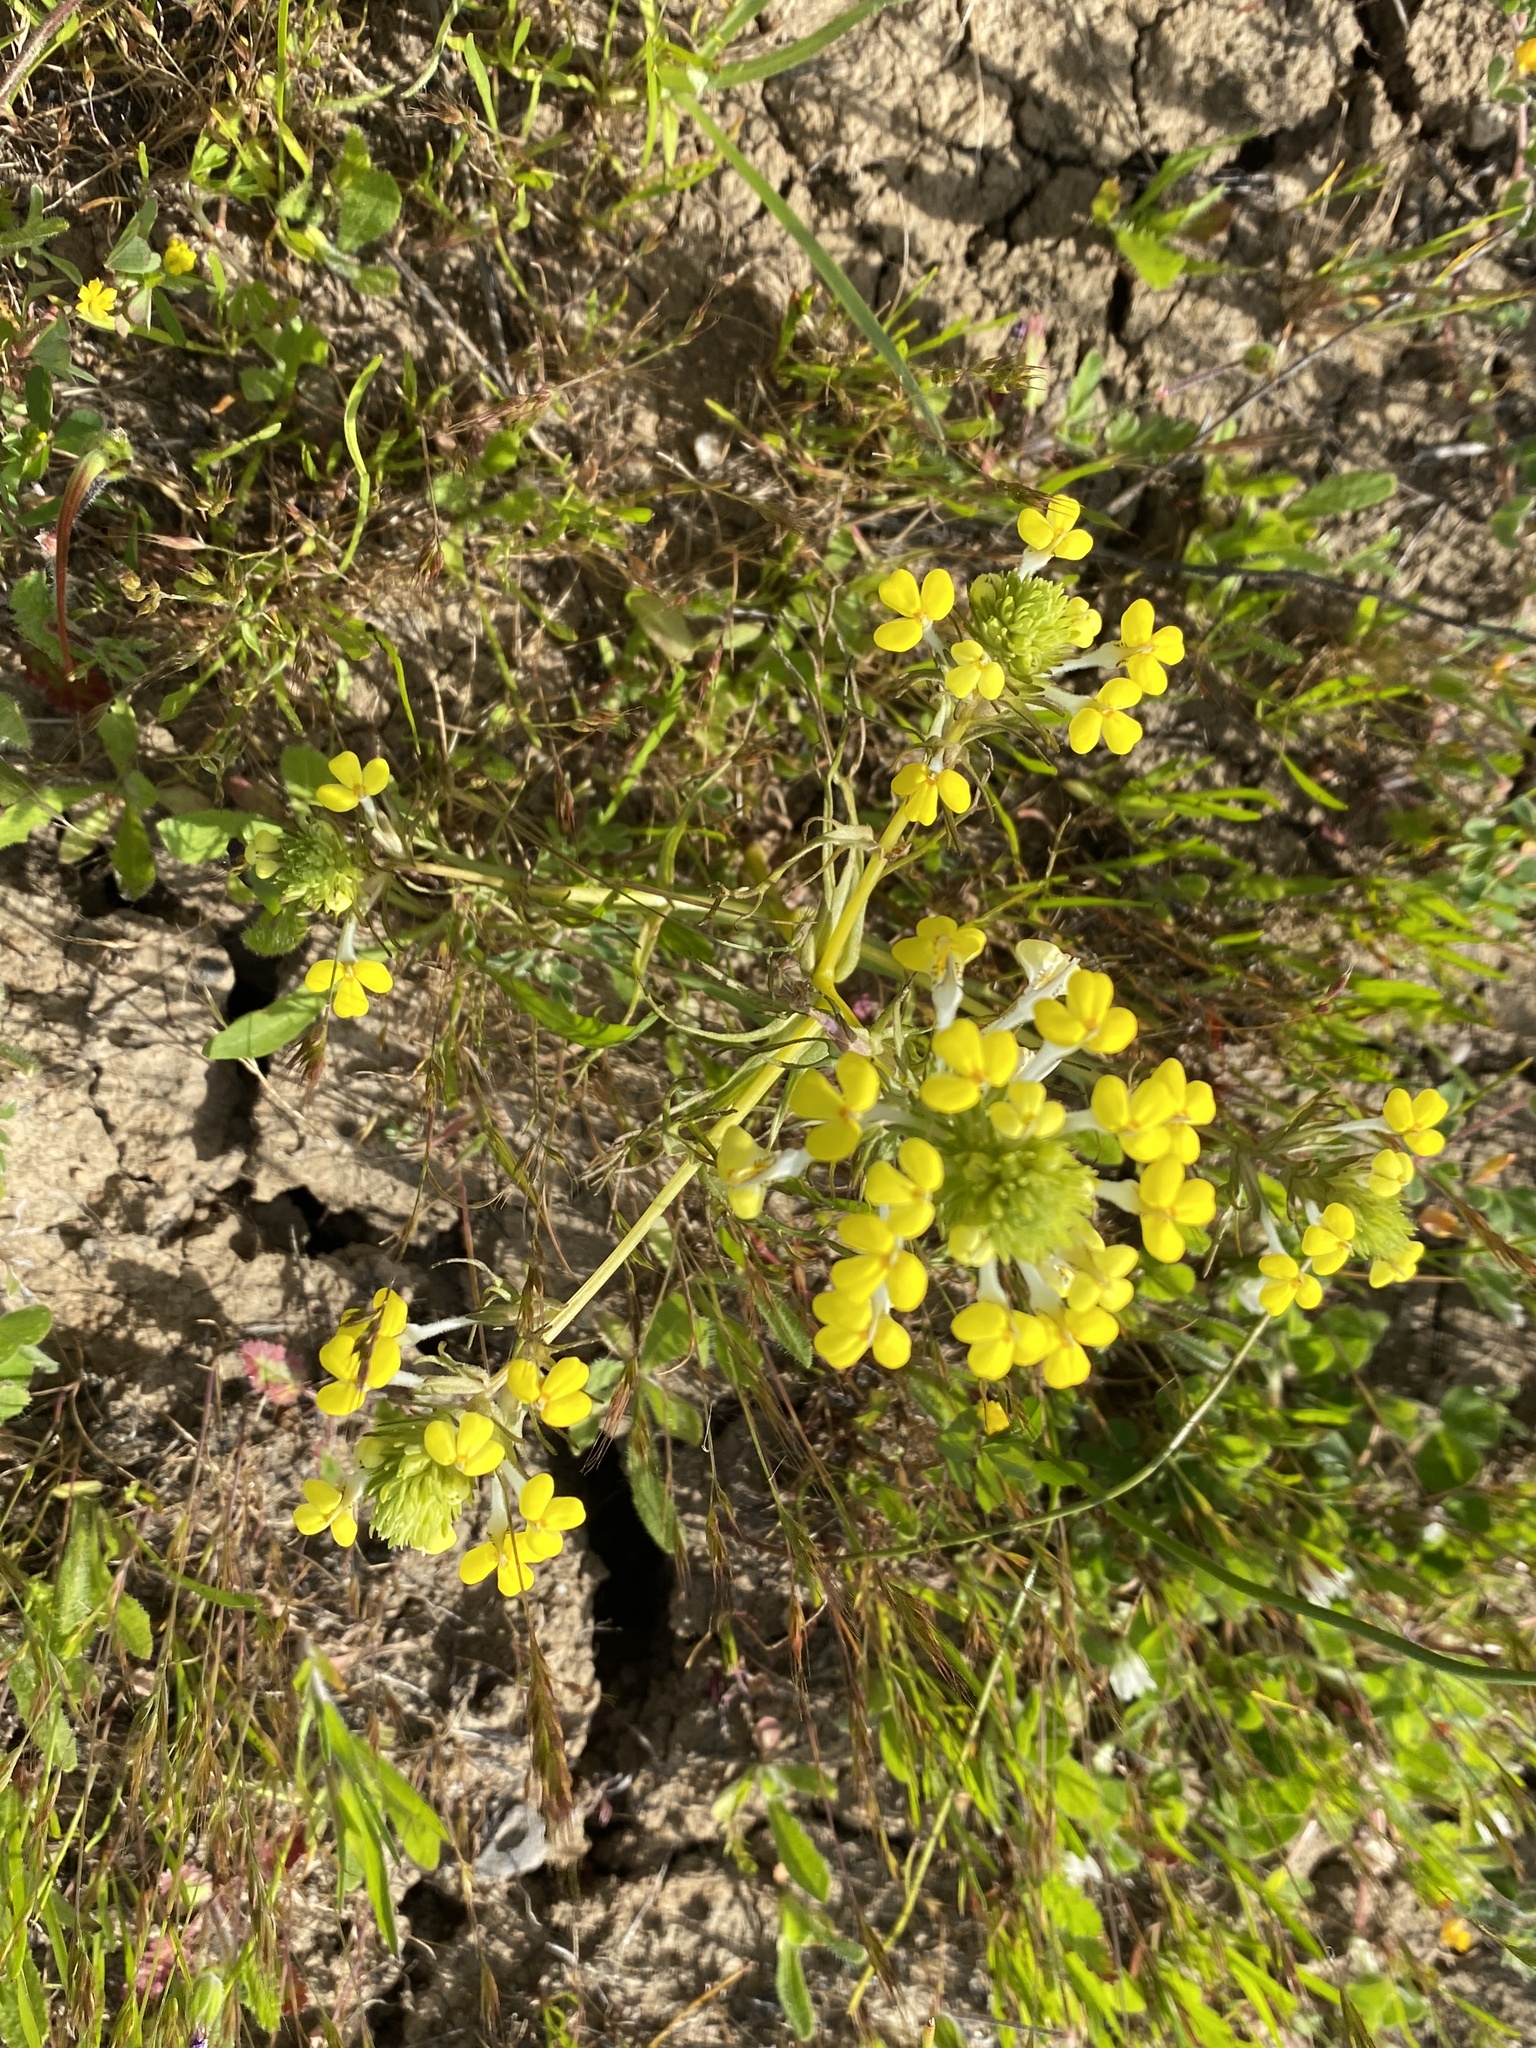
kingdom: Plantae
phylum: Tracheophyta
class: Magnoliopsida
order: Lamiales
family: Orobanchaceae
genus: Triphysaria
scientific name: Triphysaria versicolor
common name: Bearded false owl-clover
